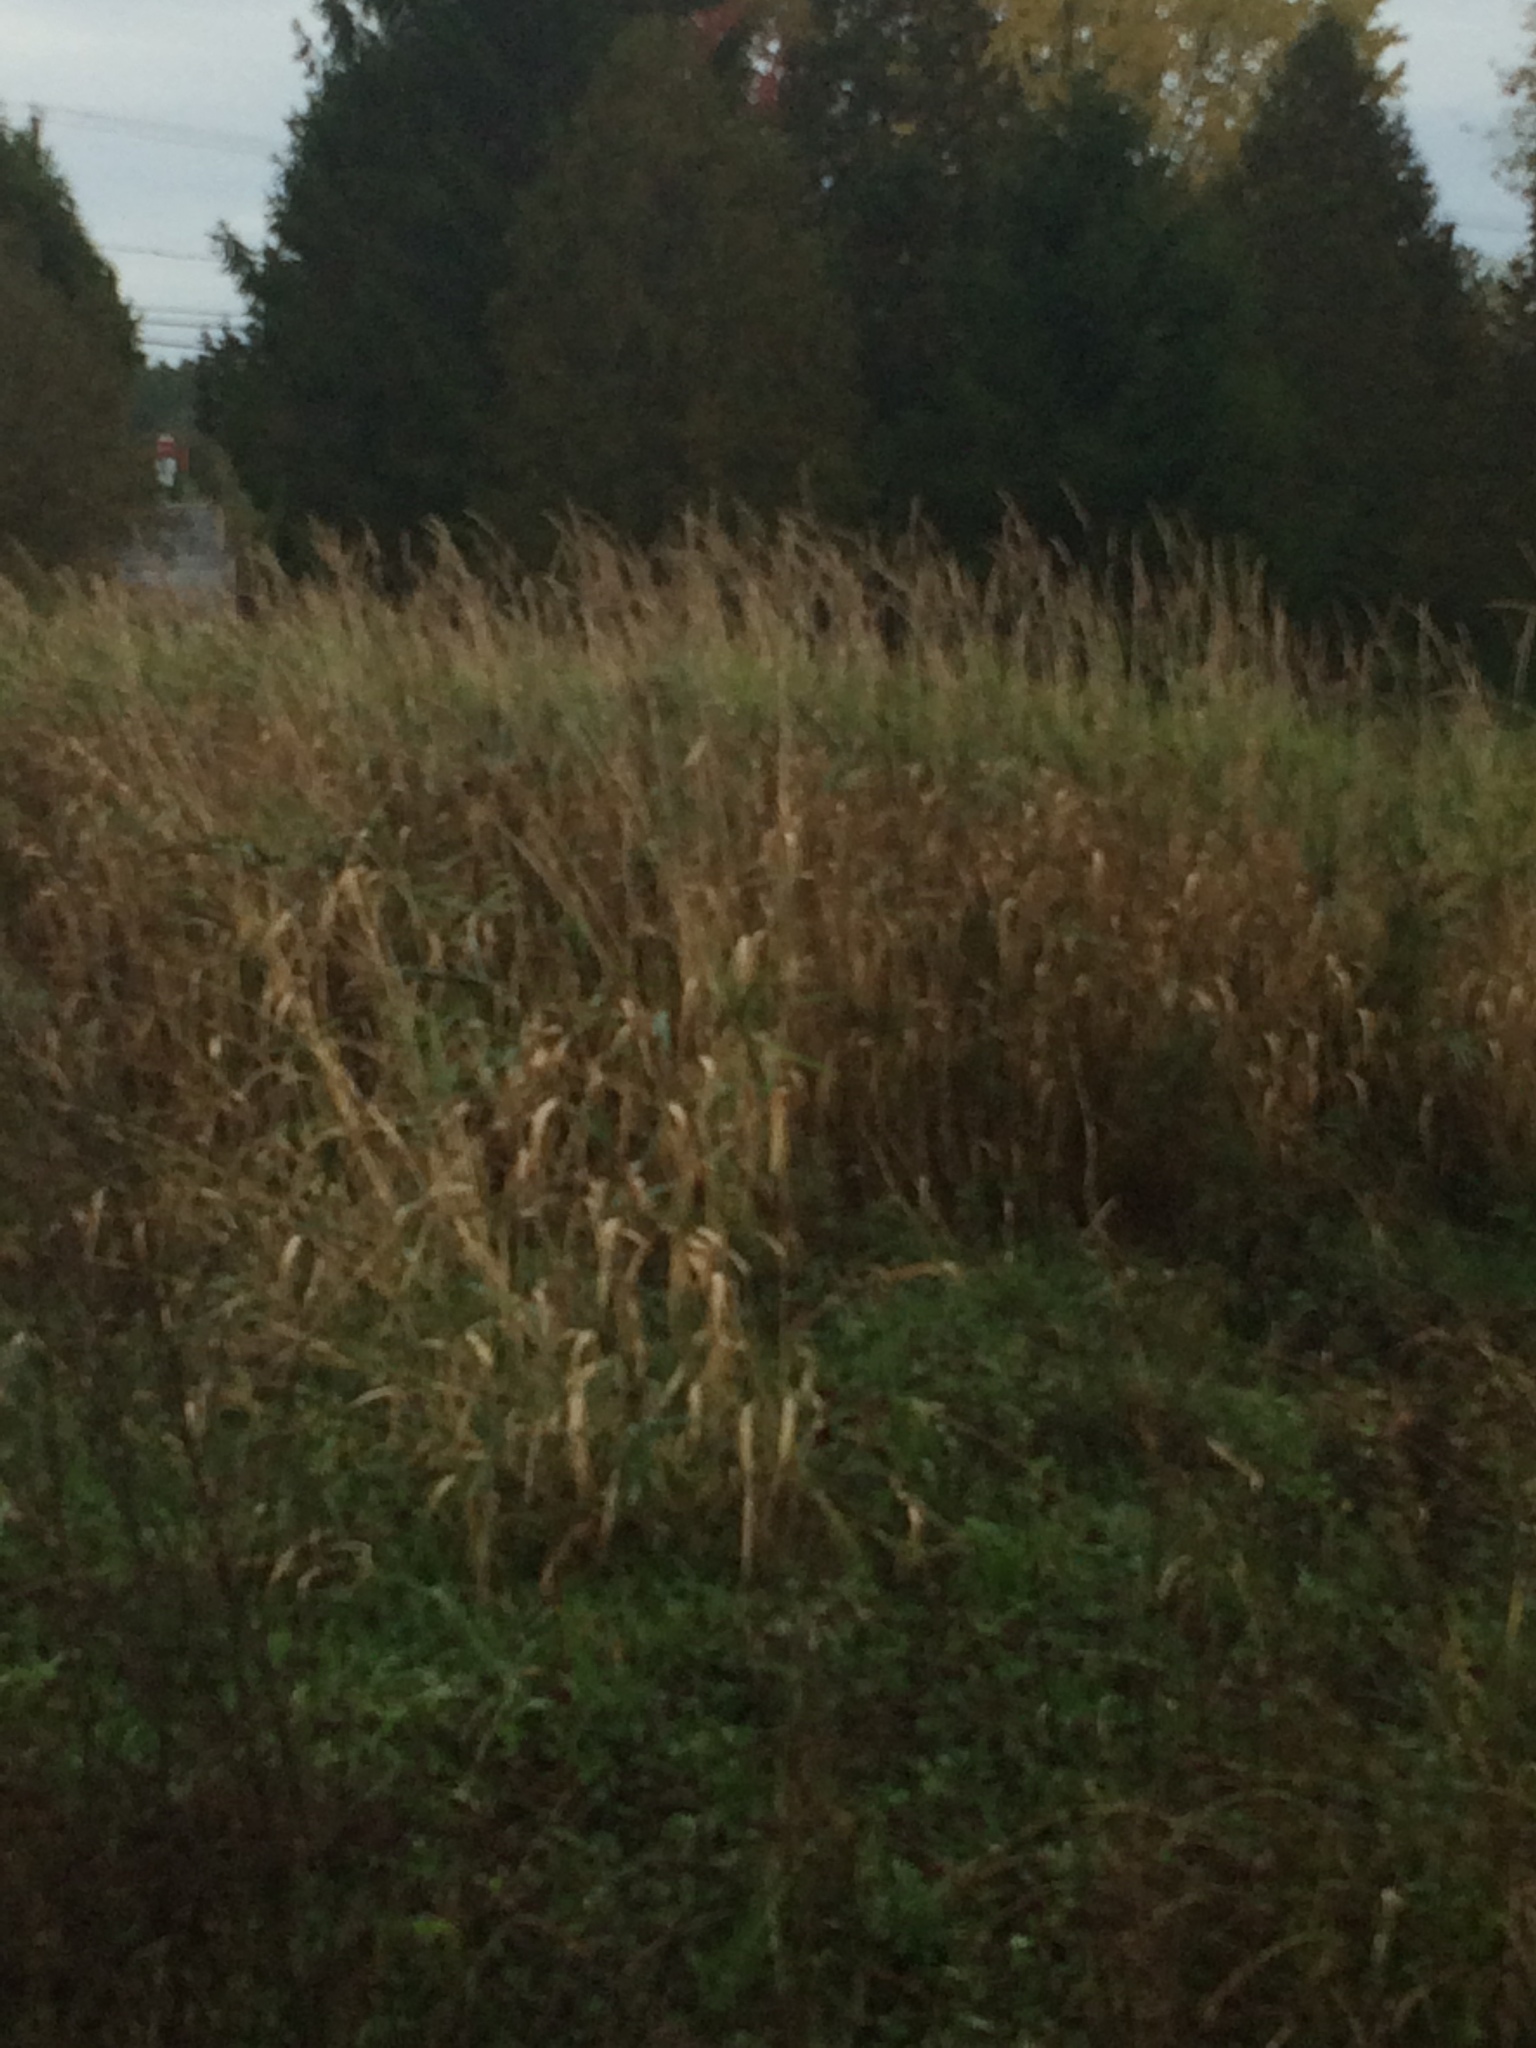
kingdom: Plantae
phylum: Tracheophyta
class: Liliopsida
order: Poales
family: Poaceae
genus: Phalaris
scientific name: Phalaris arundinacea
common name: Reed canary-grass
